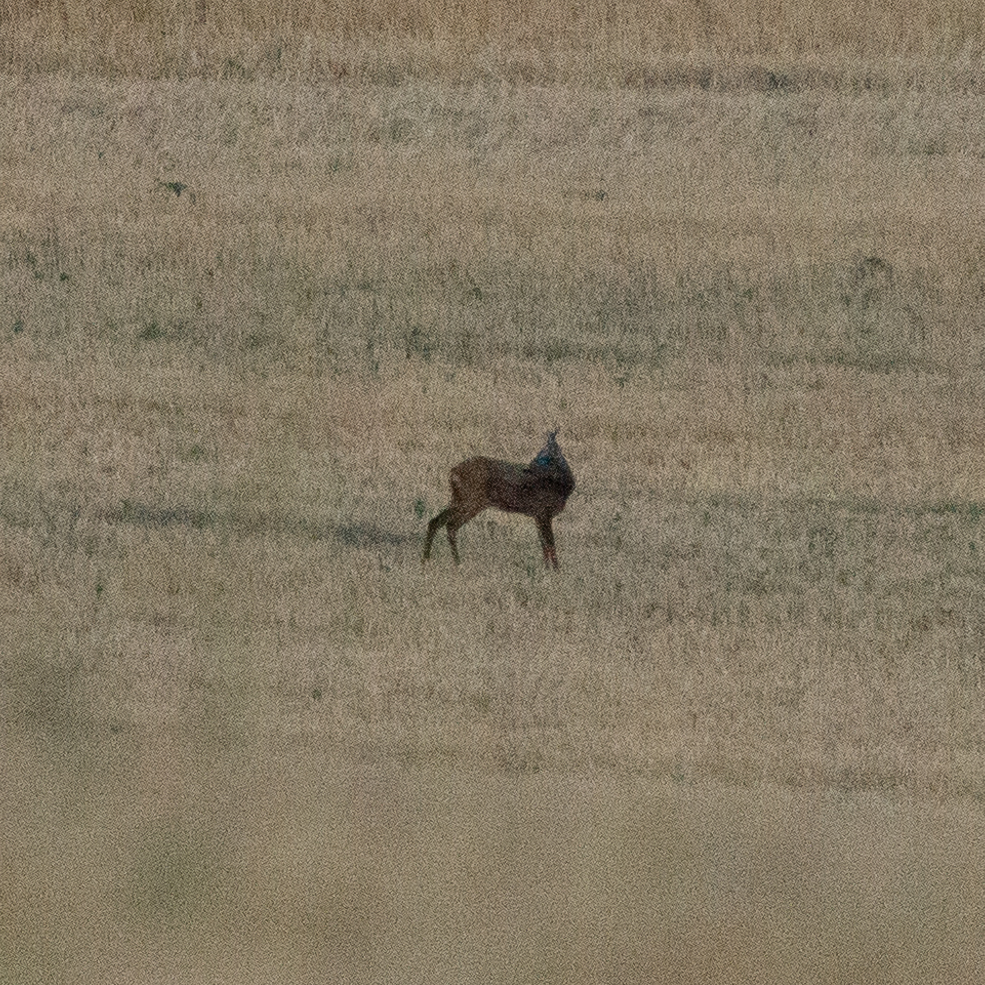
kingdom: Animalia
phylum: Chordata
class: Mammalia
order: Artiodactyla
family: Cervidae
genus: Capreolus
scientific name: Capreolus capreolus
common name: Western roe deer
